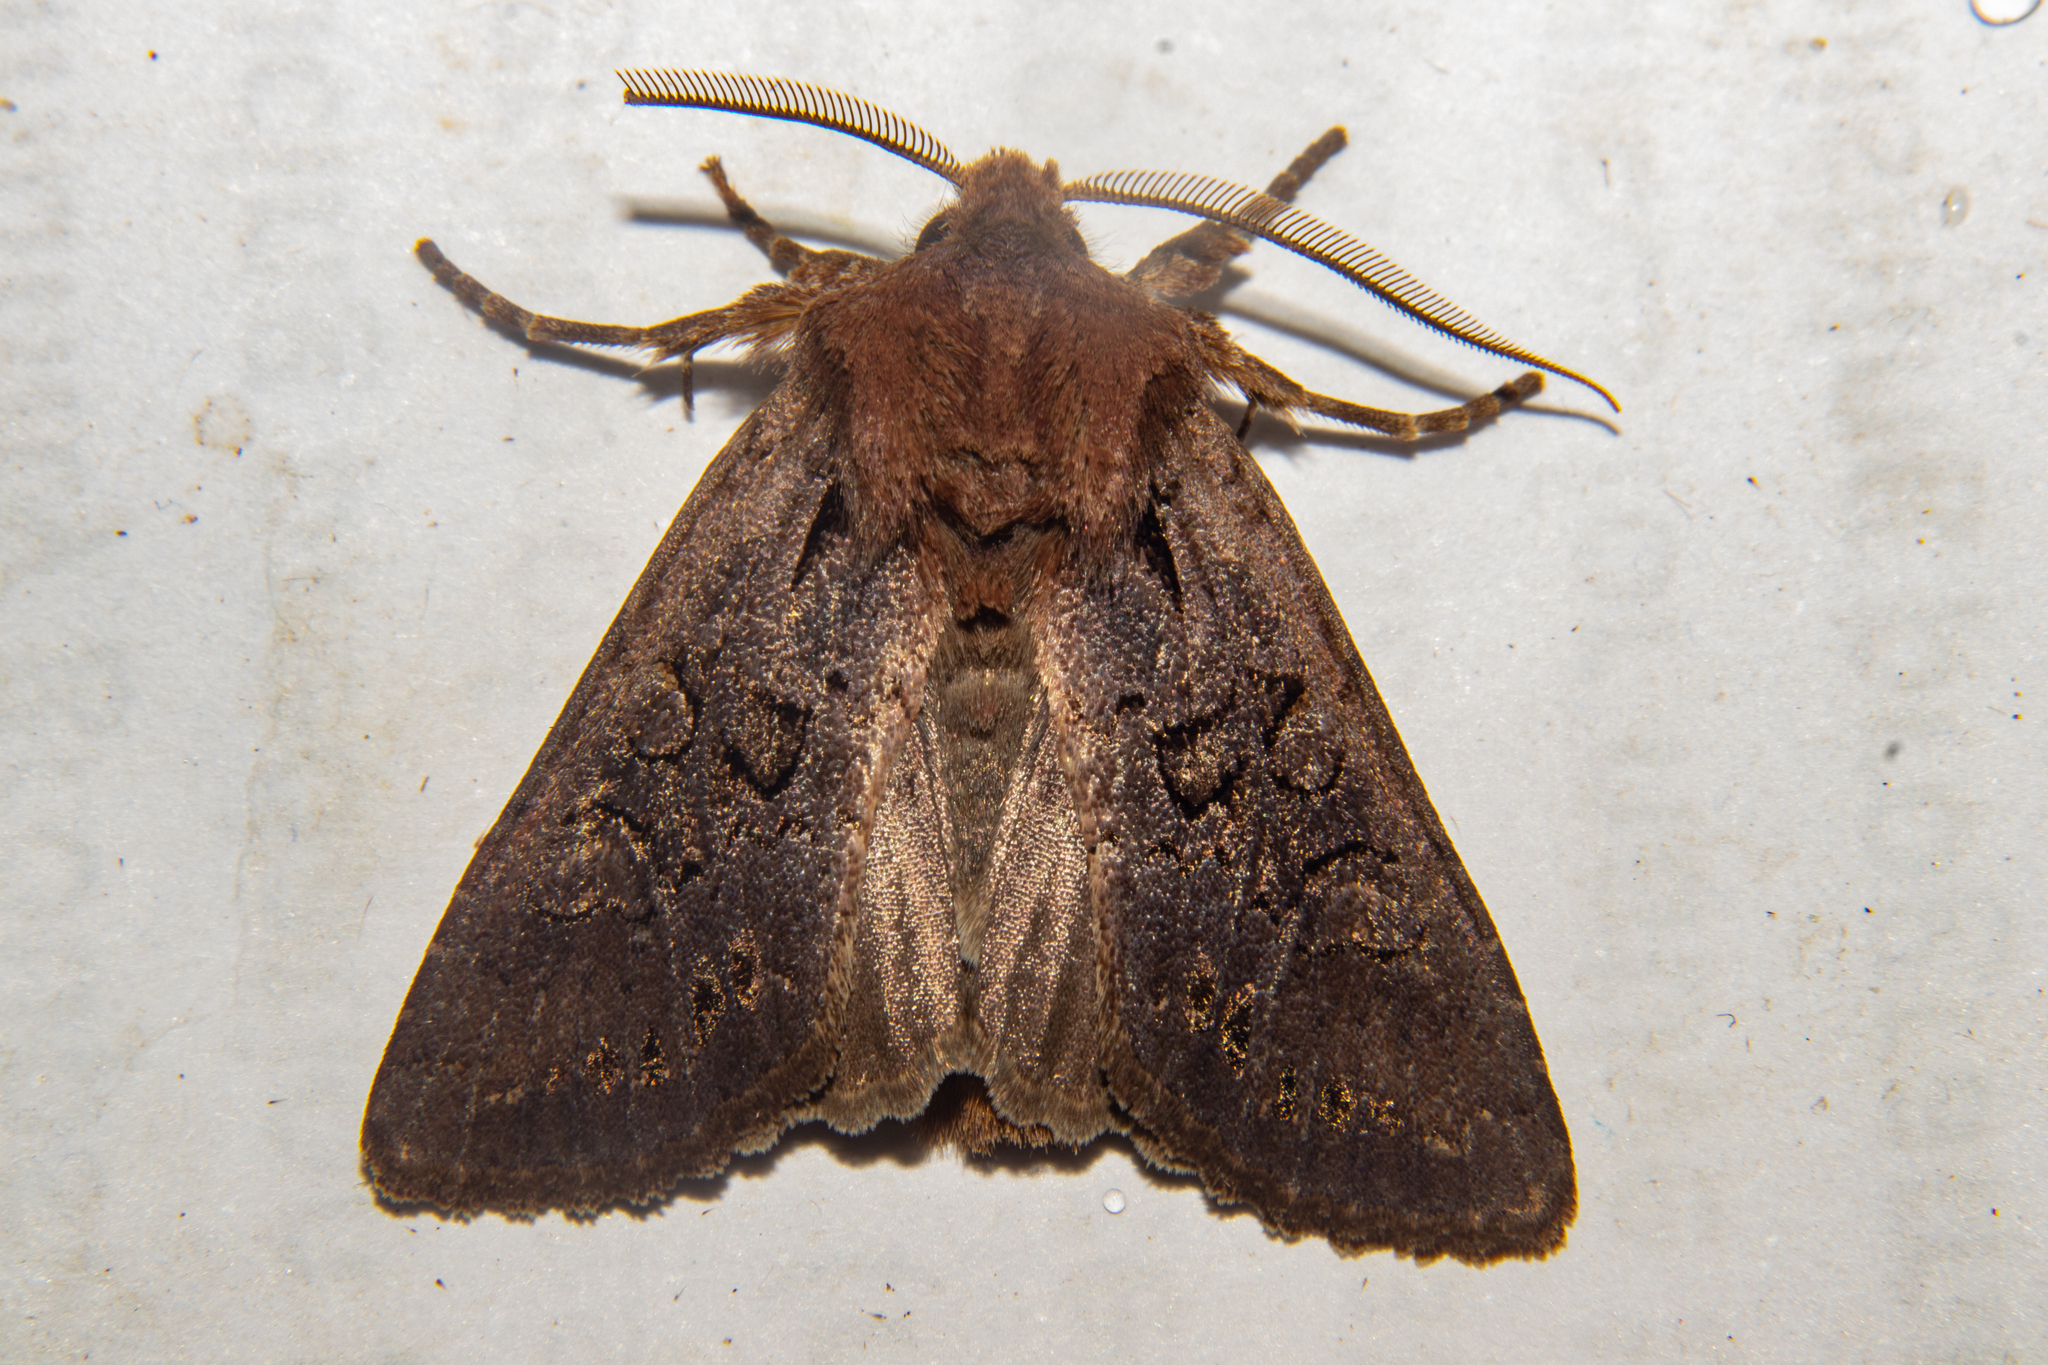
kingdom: Animalia
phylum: Arthropoda
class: Insecta
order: Lepidoptera
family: Noctuidae
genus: Ichneutica
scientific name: Ichneutica
